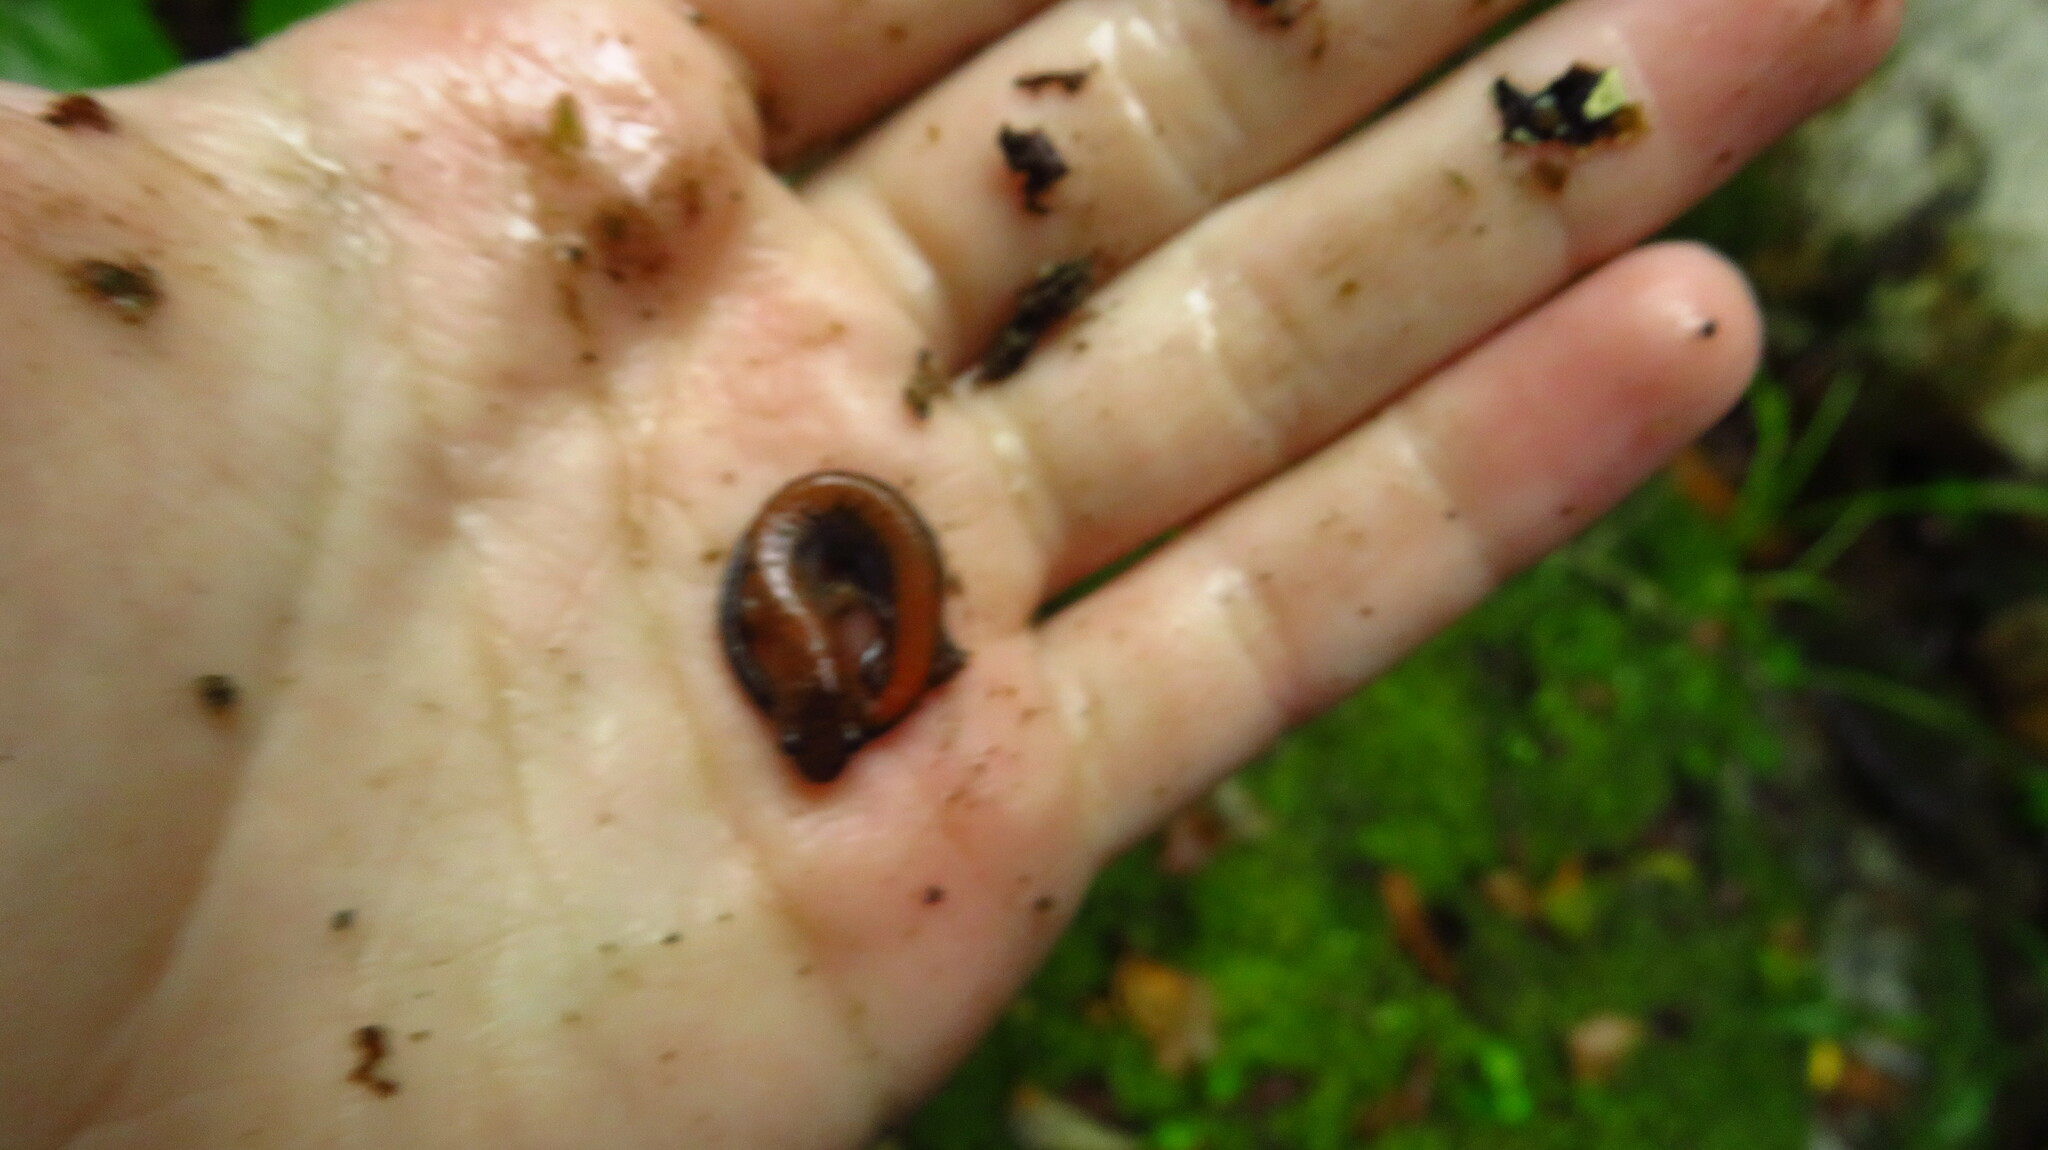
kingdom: Animalia
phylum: Chordata
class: Amphibia
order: Caudata
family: Plethodontidae
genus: Plethodon
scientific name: Plethodon cinereus
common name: Redback salamander
